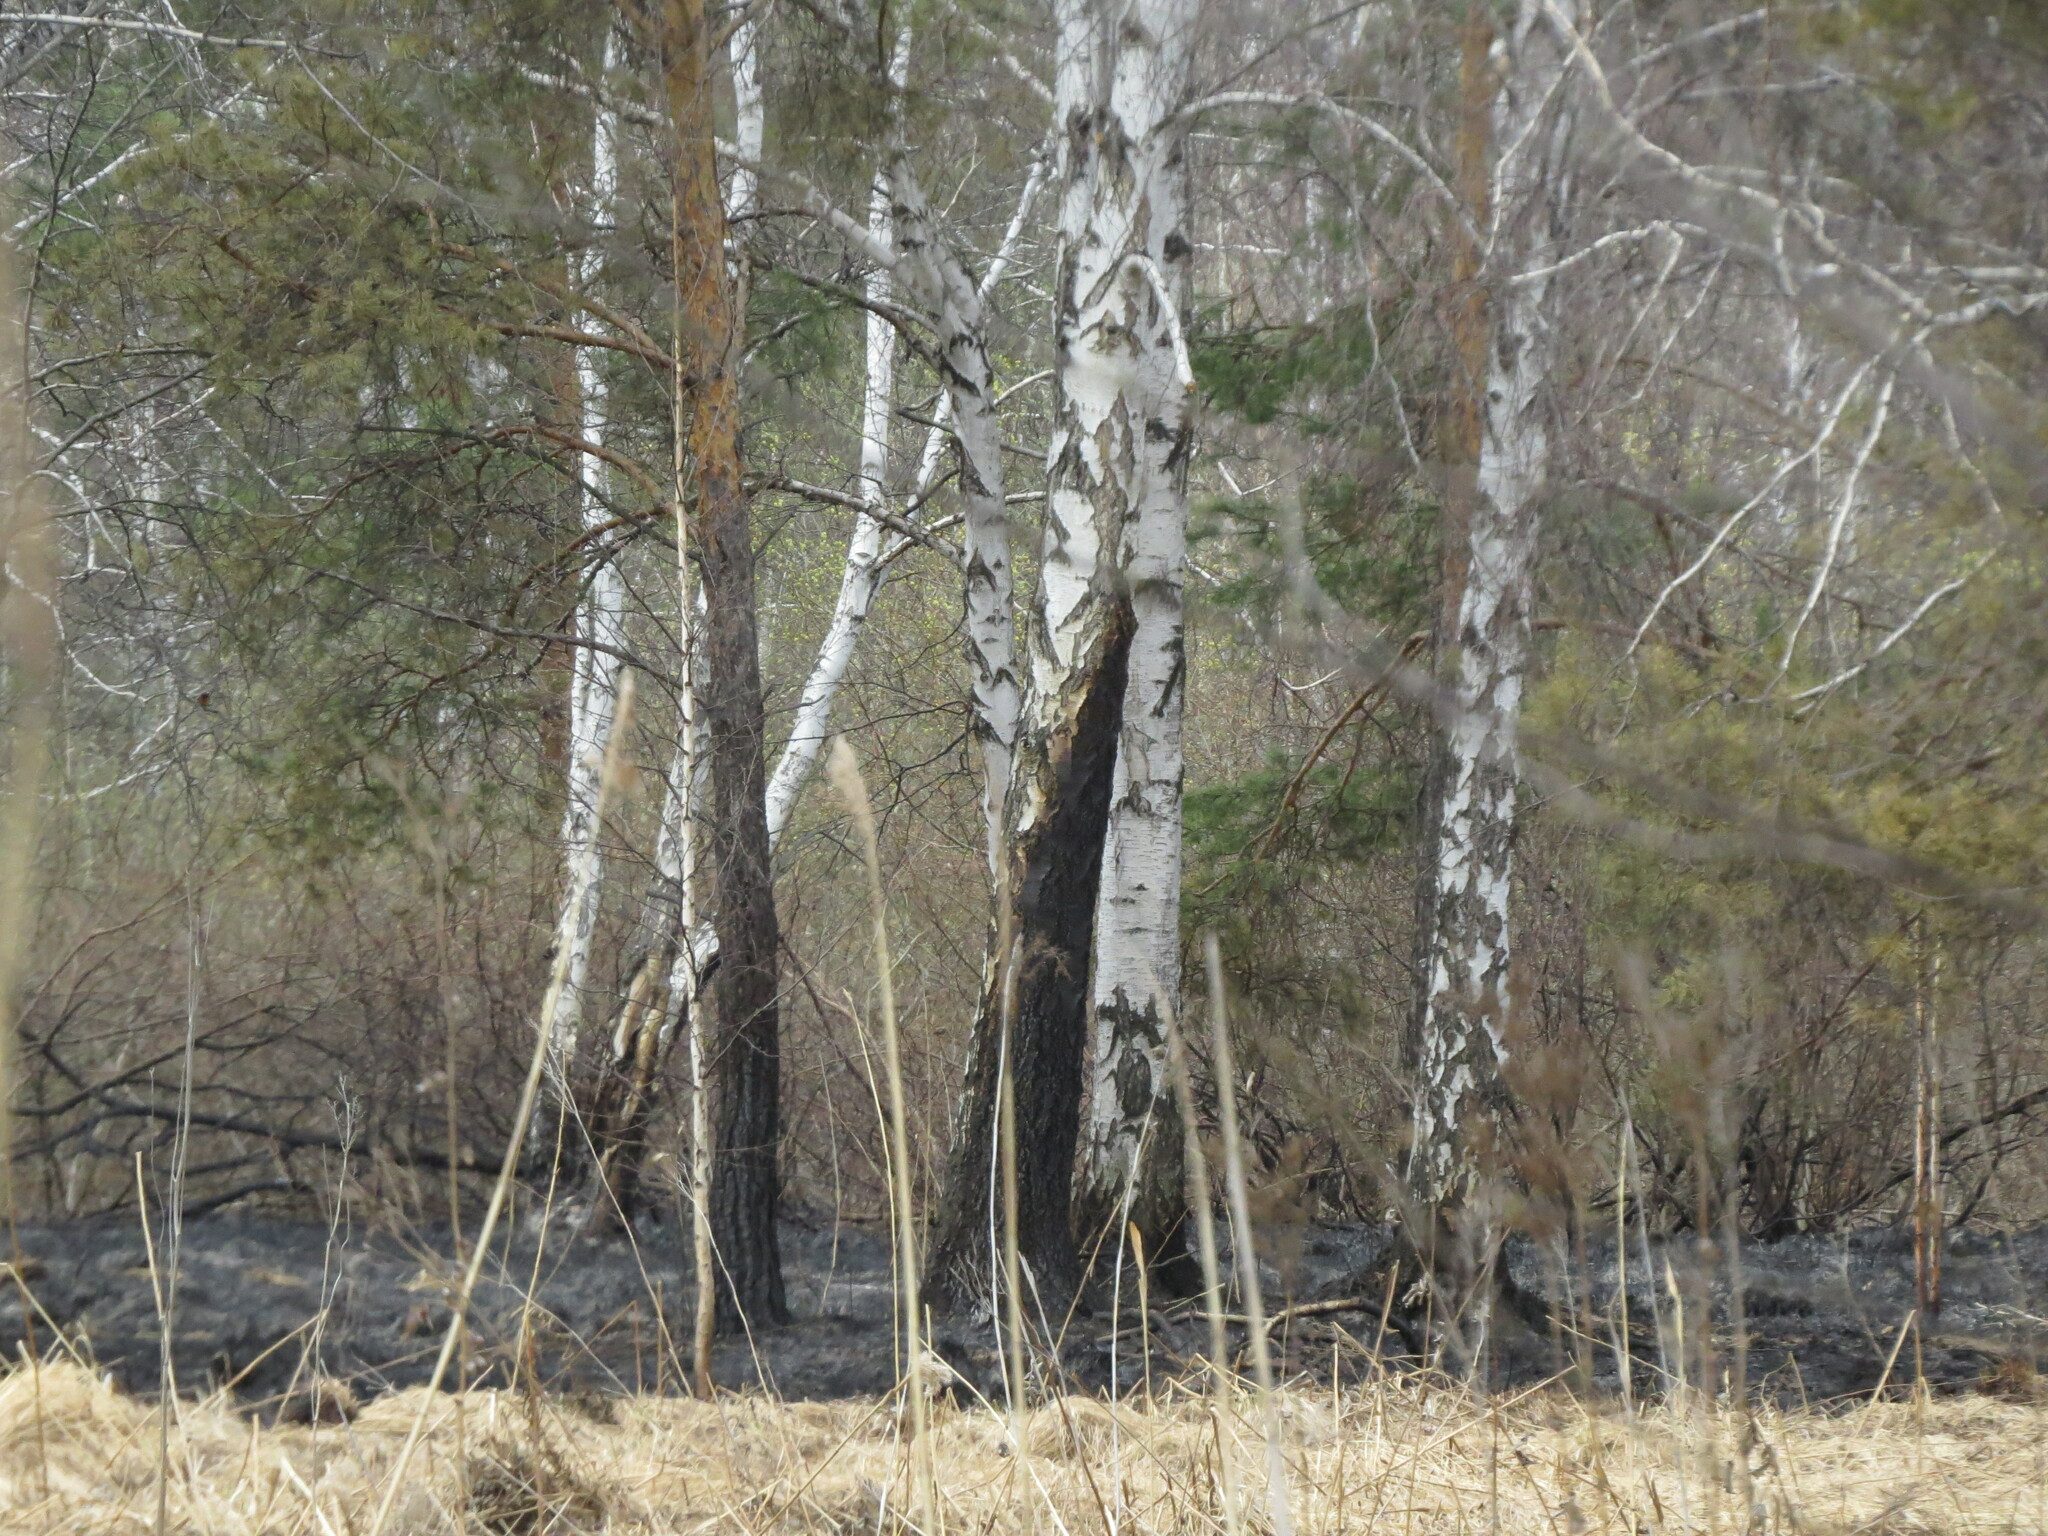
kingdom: Animalia
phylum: Chordata
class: Aves
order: Passeriformes
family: Muscicapidae
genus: Phoenicurus
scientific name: Phoenicurus phoenicurus
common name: Common redstart
